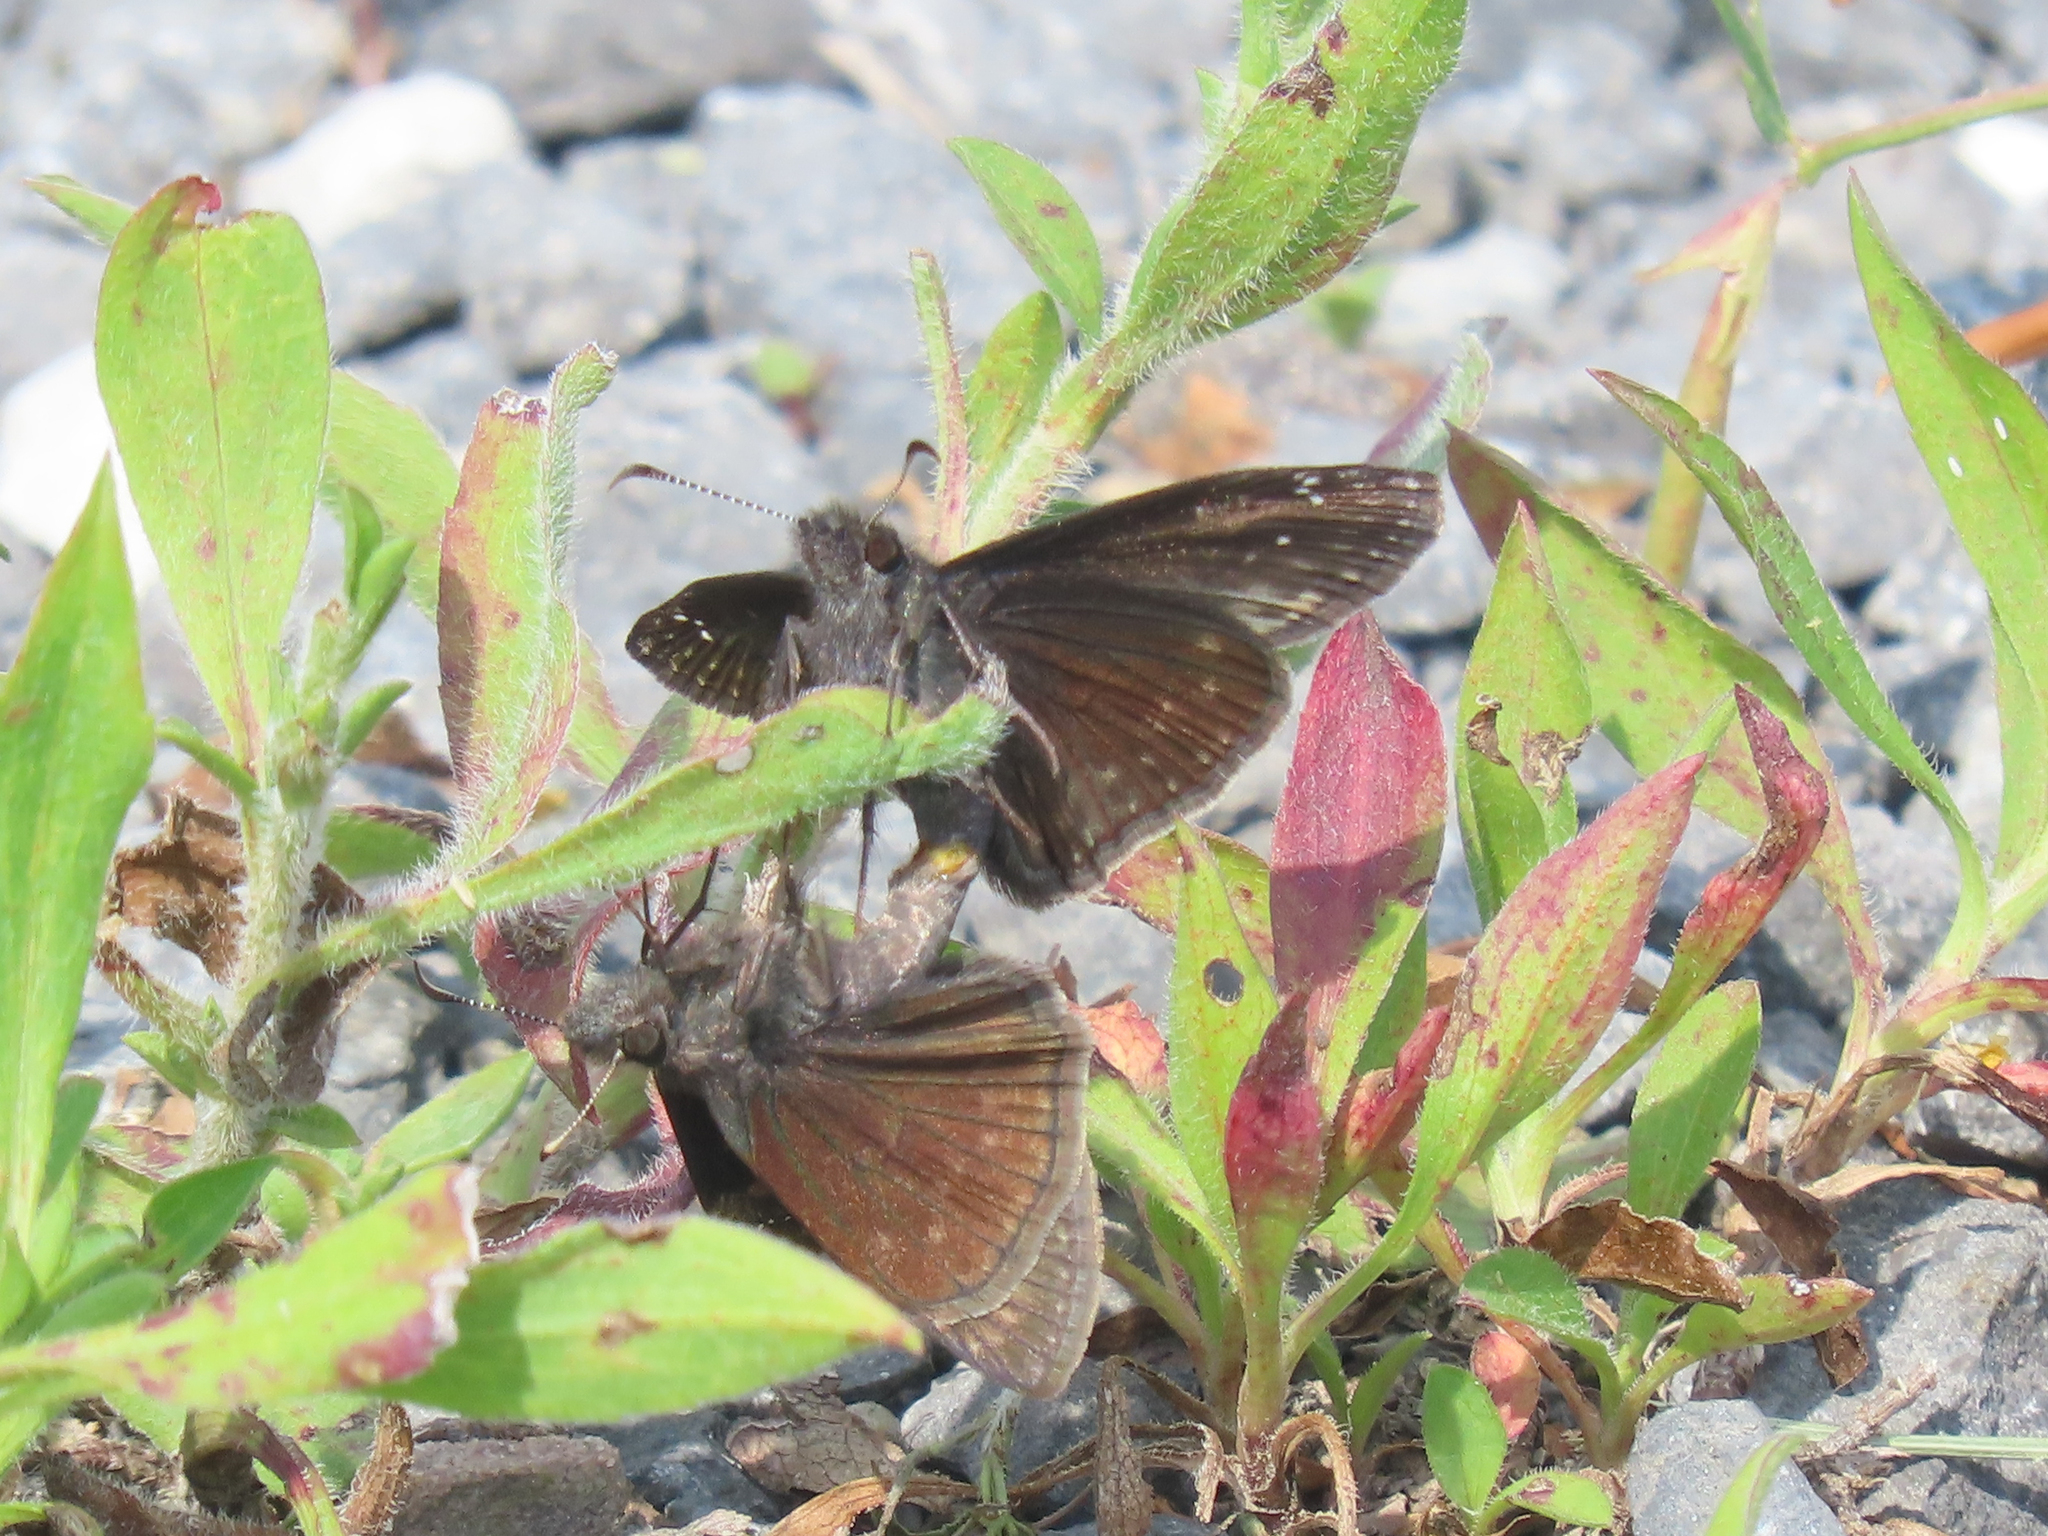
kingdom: Animalia
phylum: Arthropoda
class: Insecta
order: Lepidoptera
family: Hesperiidae
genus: Erynnis
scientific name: Erynnis baptisiae
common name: Wild indigo duskywing
